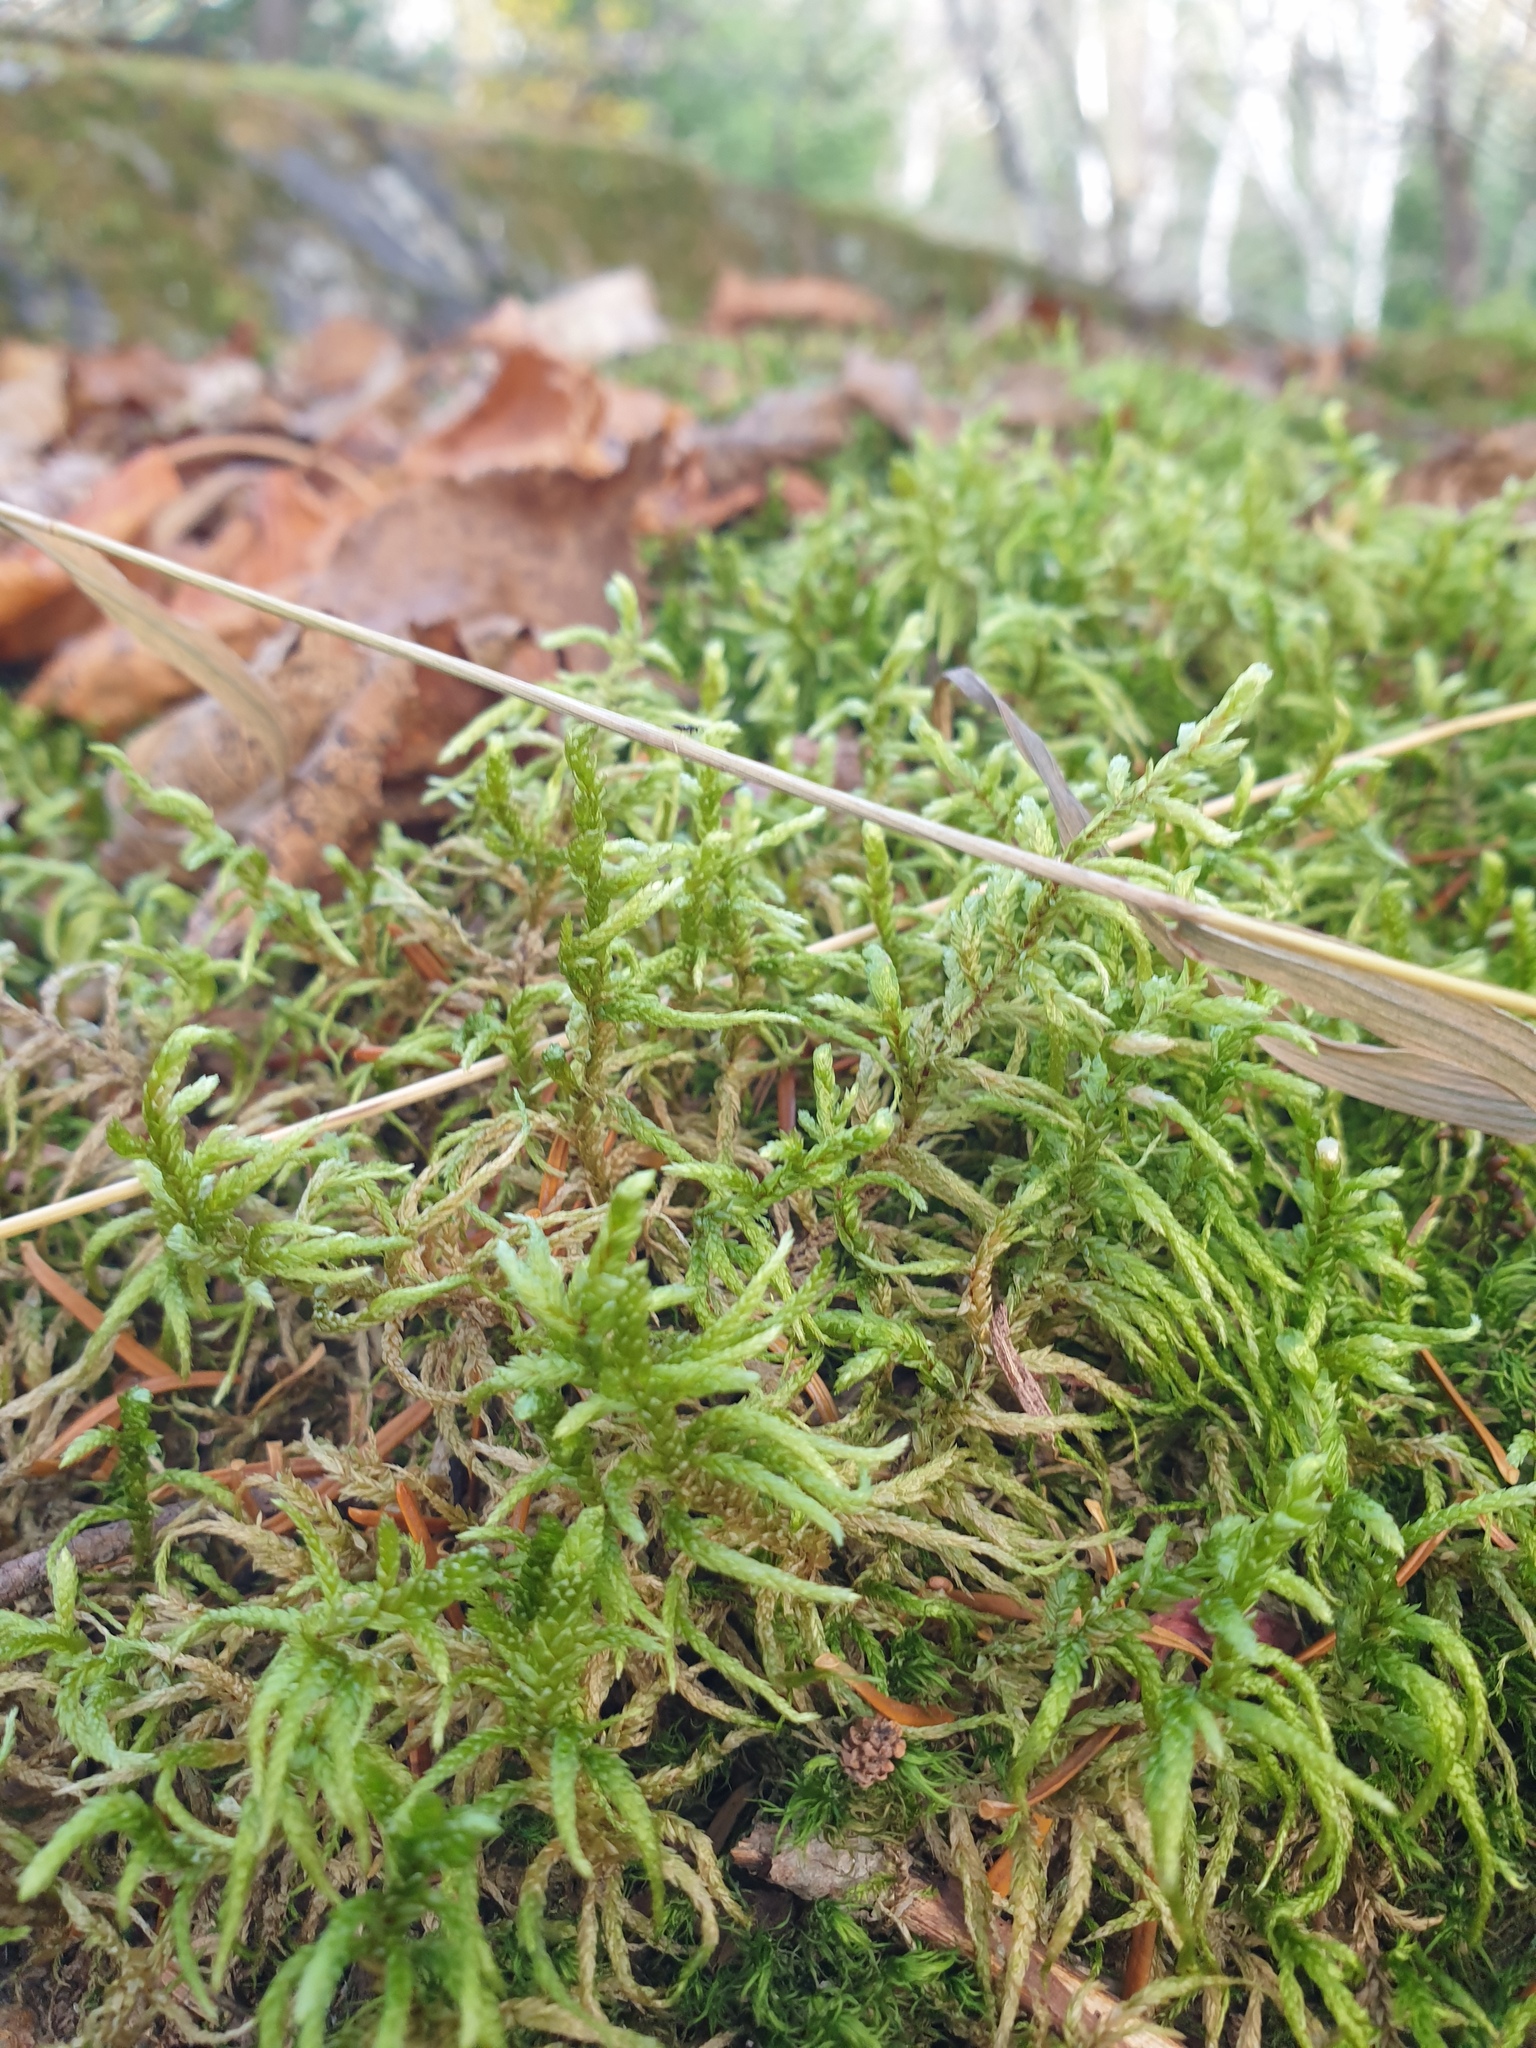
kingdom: Plantae
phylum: Bryophyta
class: Bryopsida
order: Hypnales
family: Hylocomiaceae
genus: Pleurozium
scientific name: Pleurozium schreberi
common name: Red-stemmed feather moss
